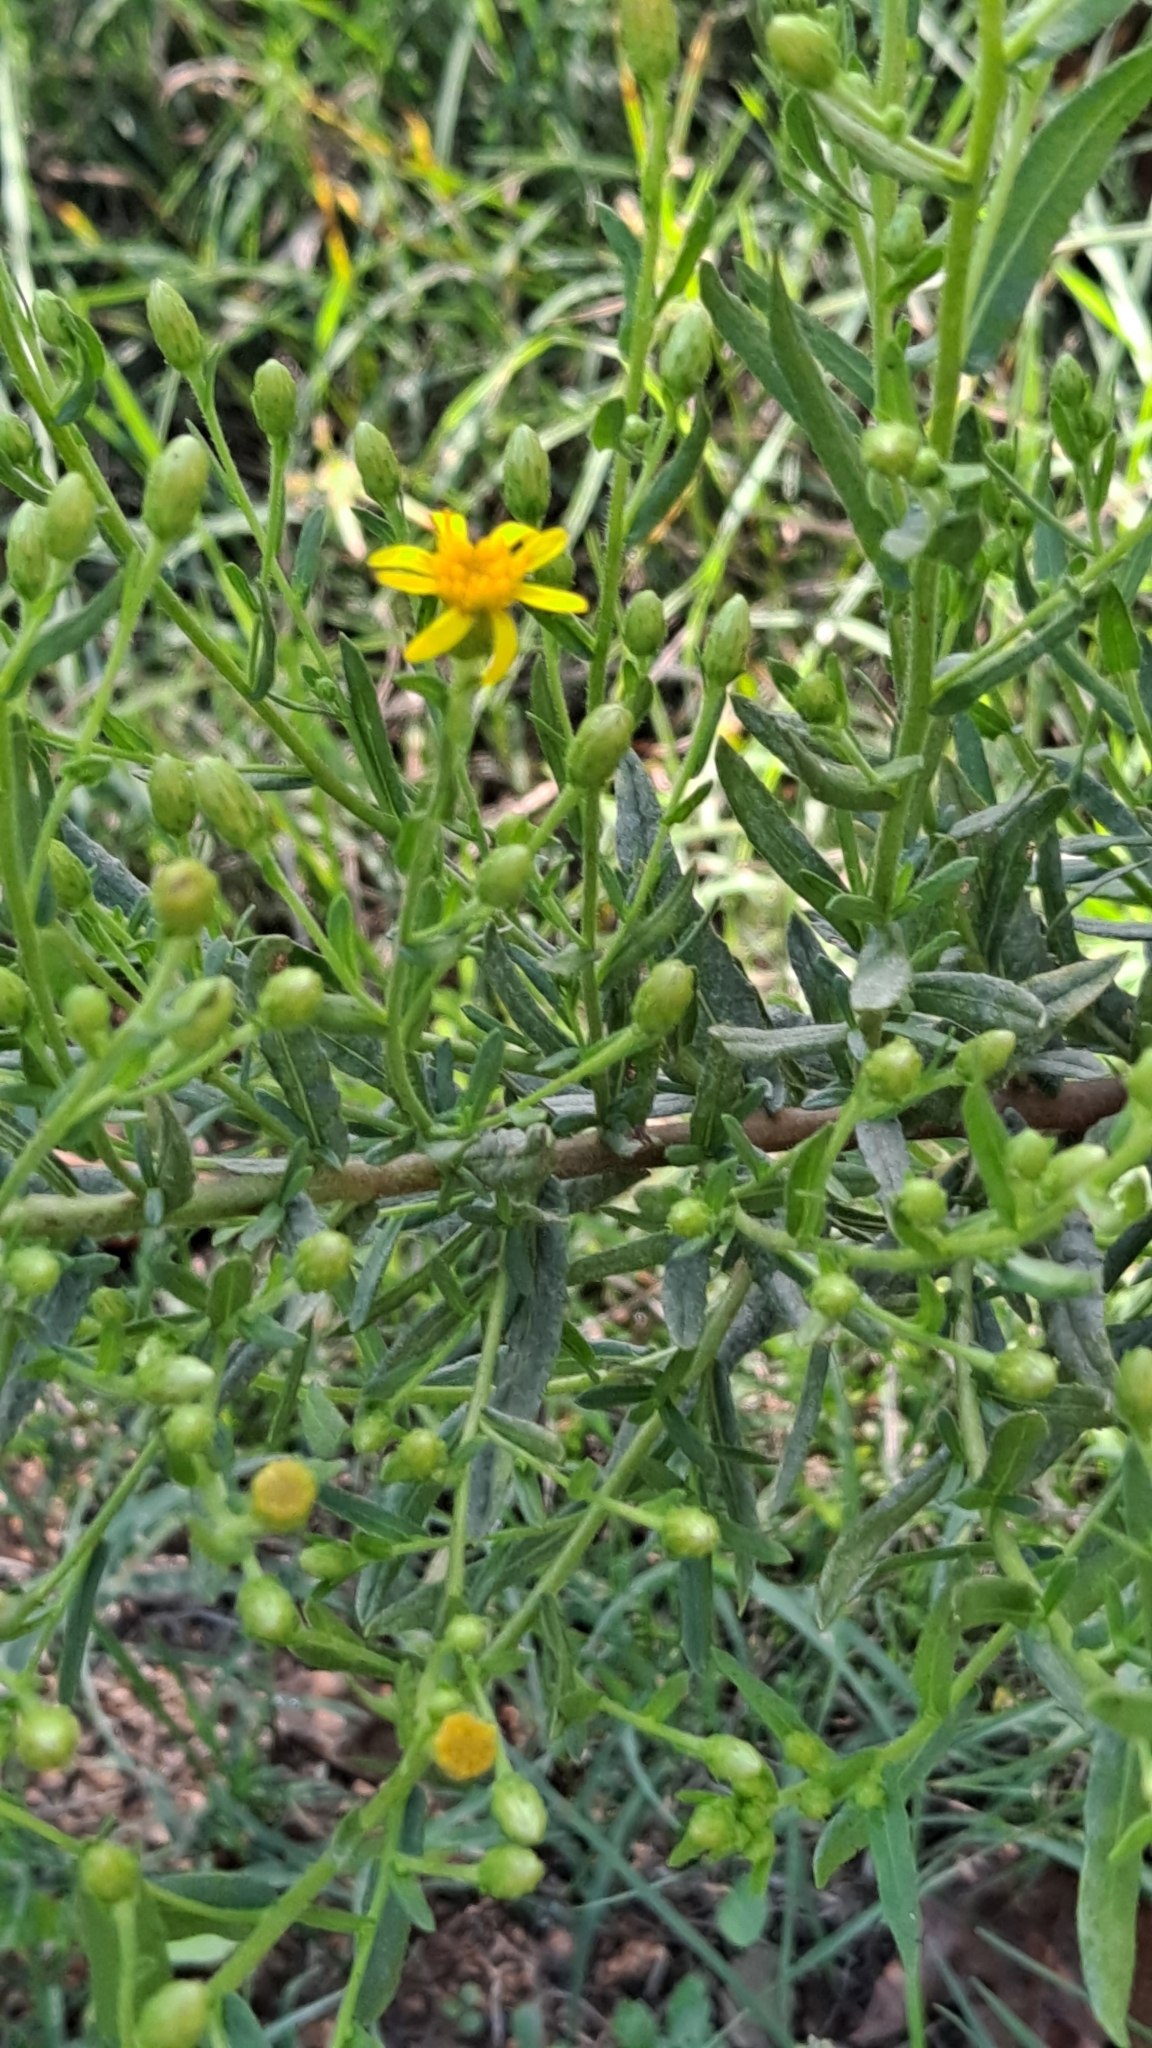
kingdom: Plantae
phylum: Tracheophyta
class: Magnoliopsida
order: Asterales
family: Asteraceae
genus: Dittrichia
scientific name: Dittrichia viscosa
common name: Woody fleabane
